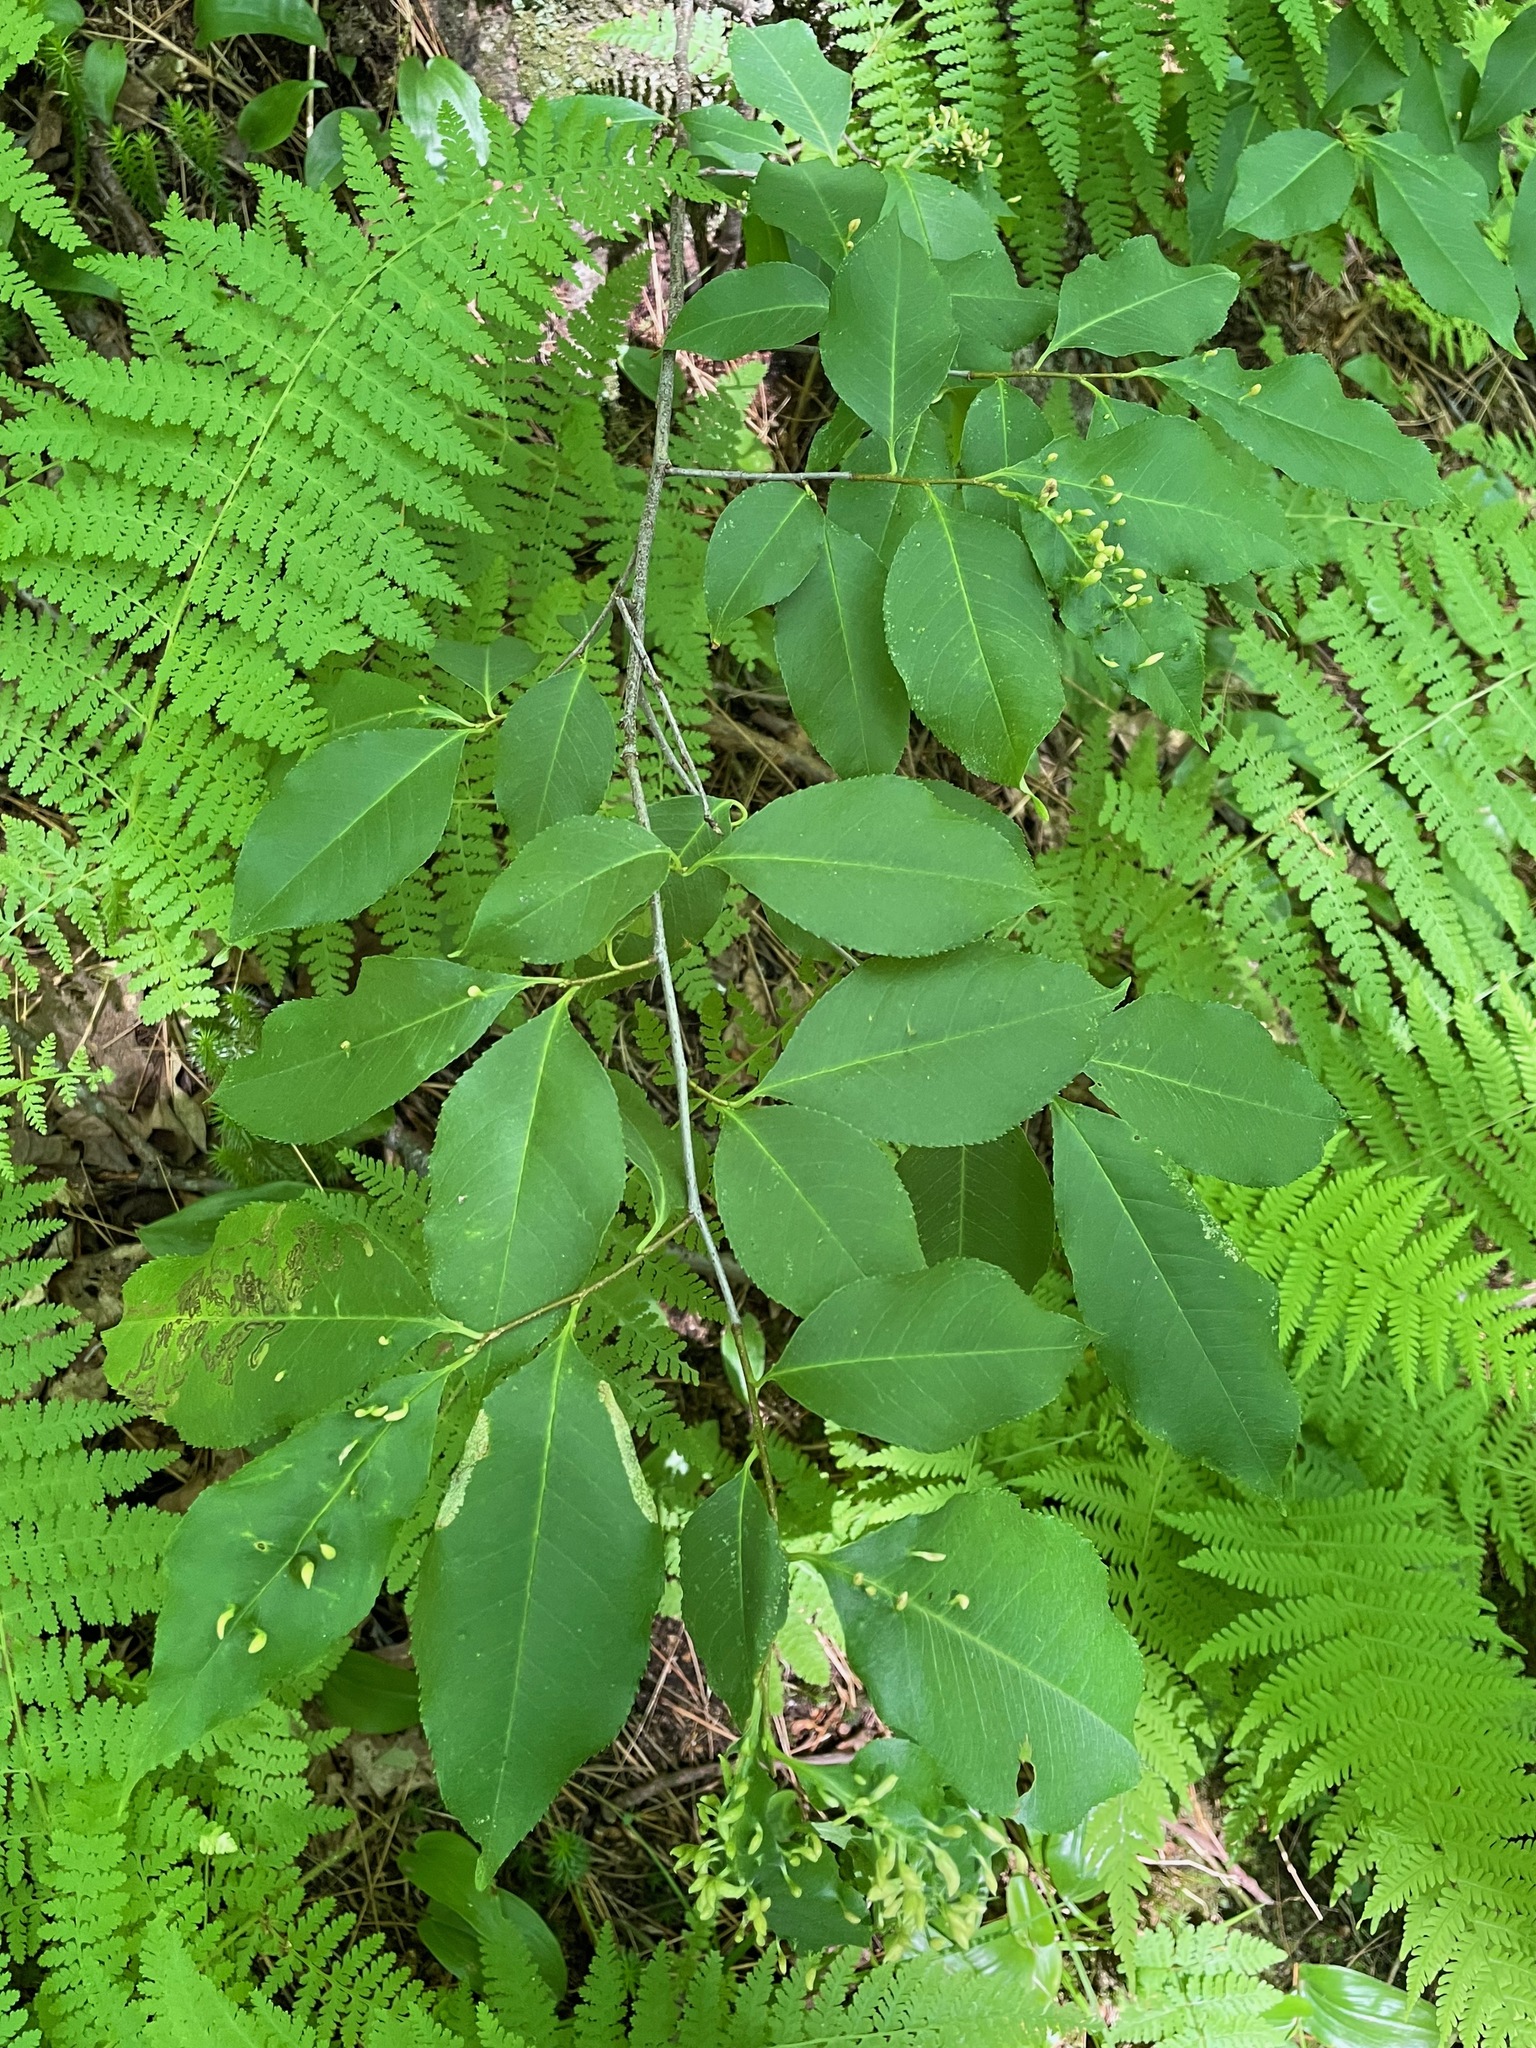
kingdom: Plantae
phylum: Tracheophyta
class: Magnoliopsida
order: Rosales
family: Rosaceae
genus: Prunus
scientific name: Prunus serotina
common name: Black cherry
